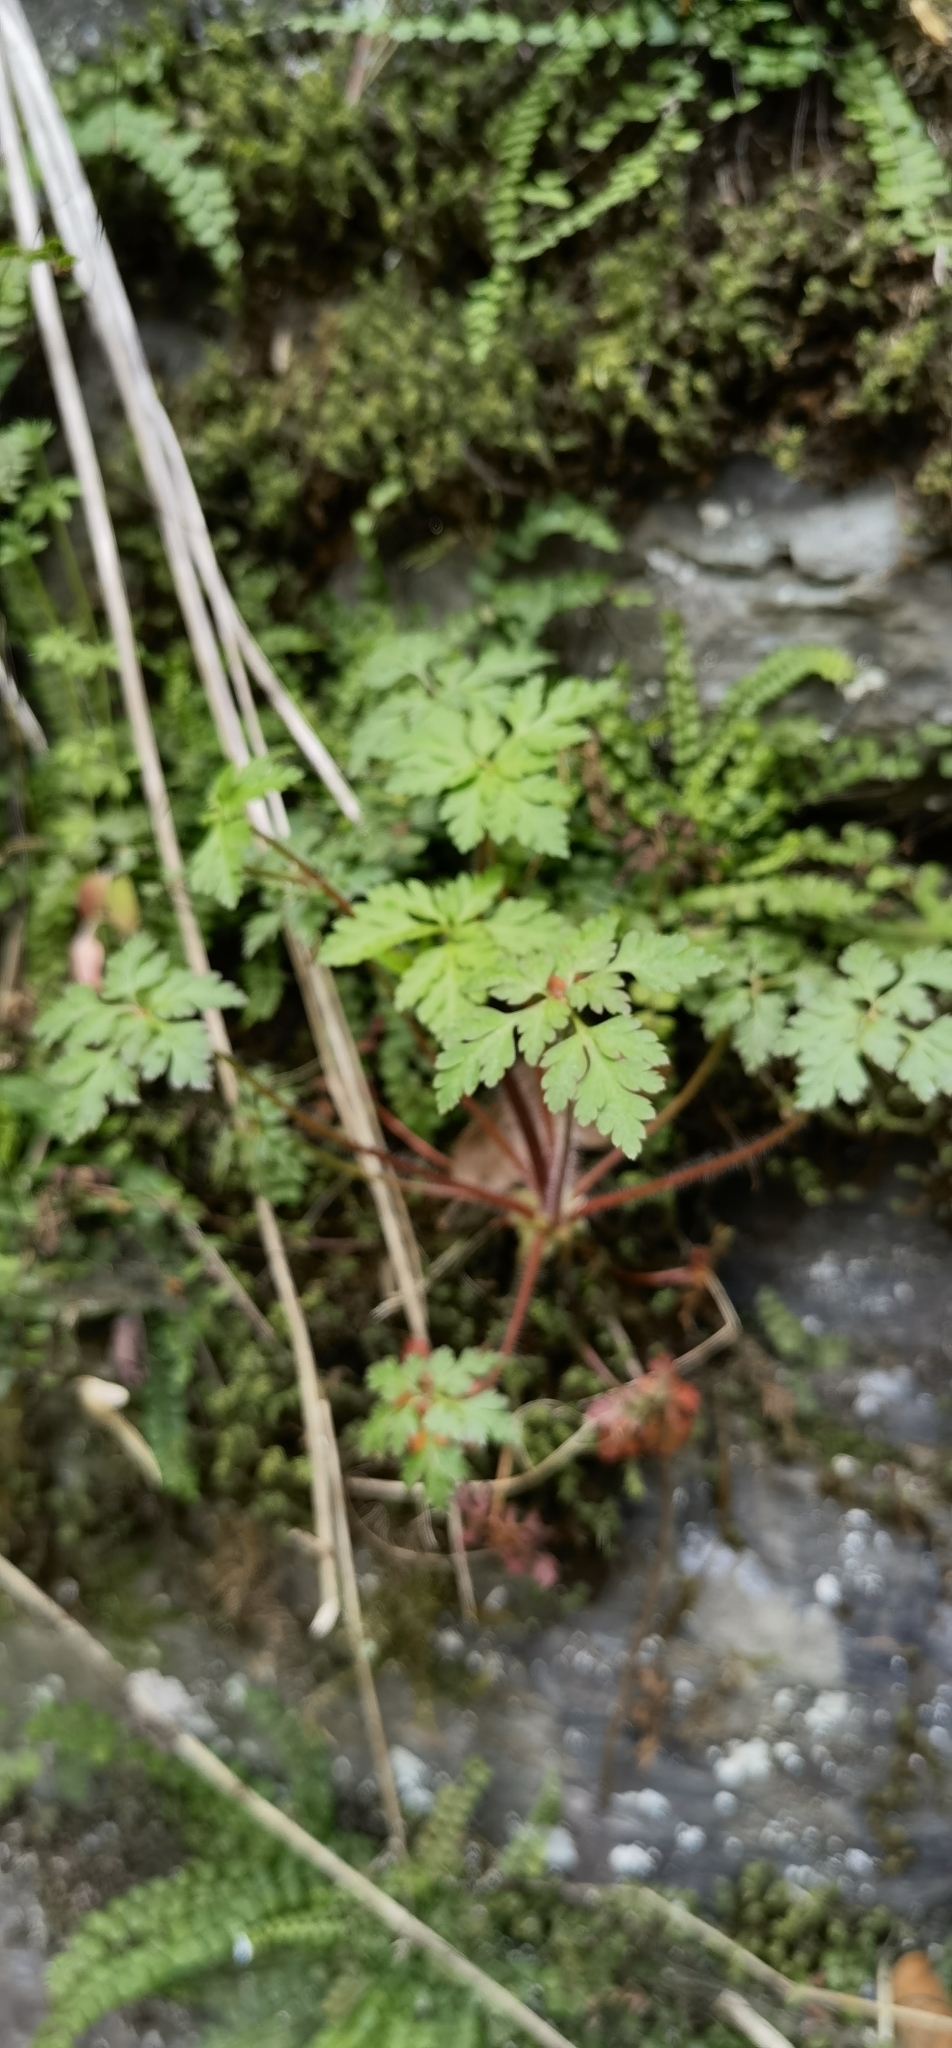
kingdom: Plantae
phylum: Tracheophyta
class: Magnoliopsida
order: Geraniales
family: Geraniaceae
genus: Geranium
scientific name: Geranium robertianum
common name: Herb-robert
